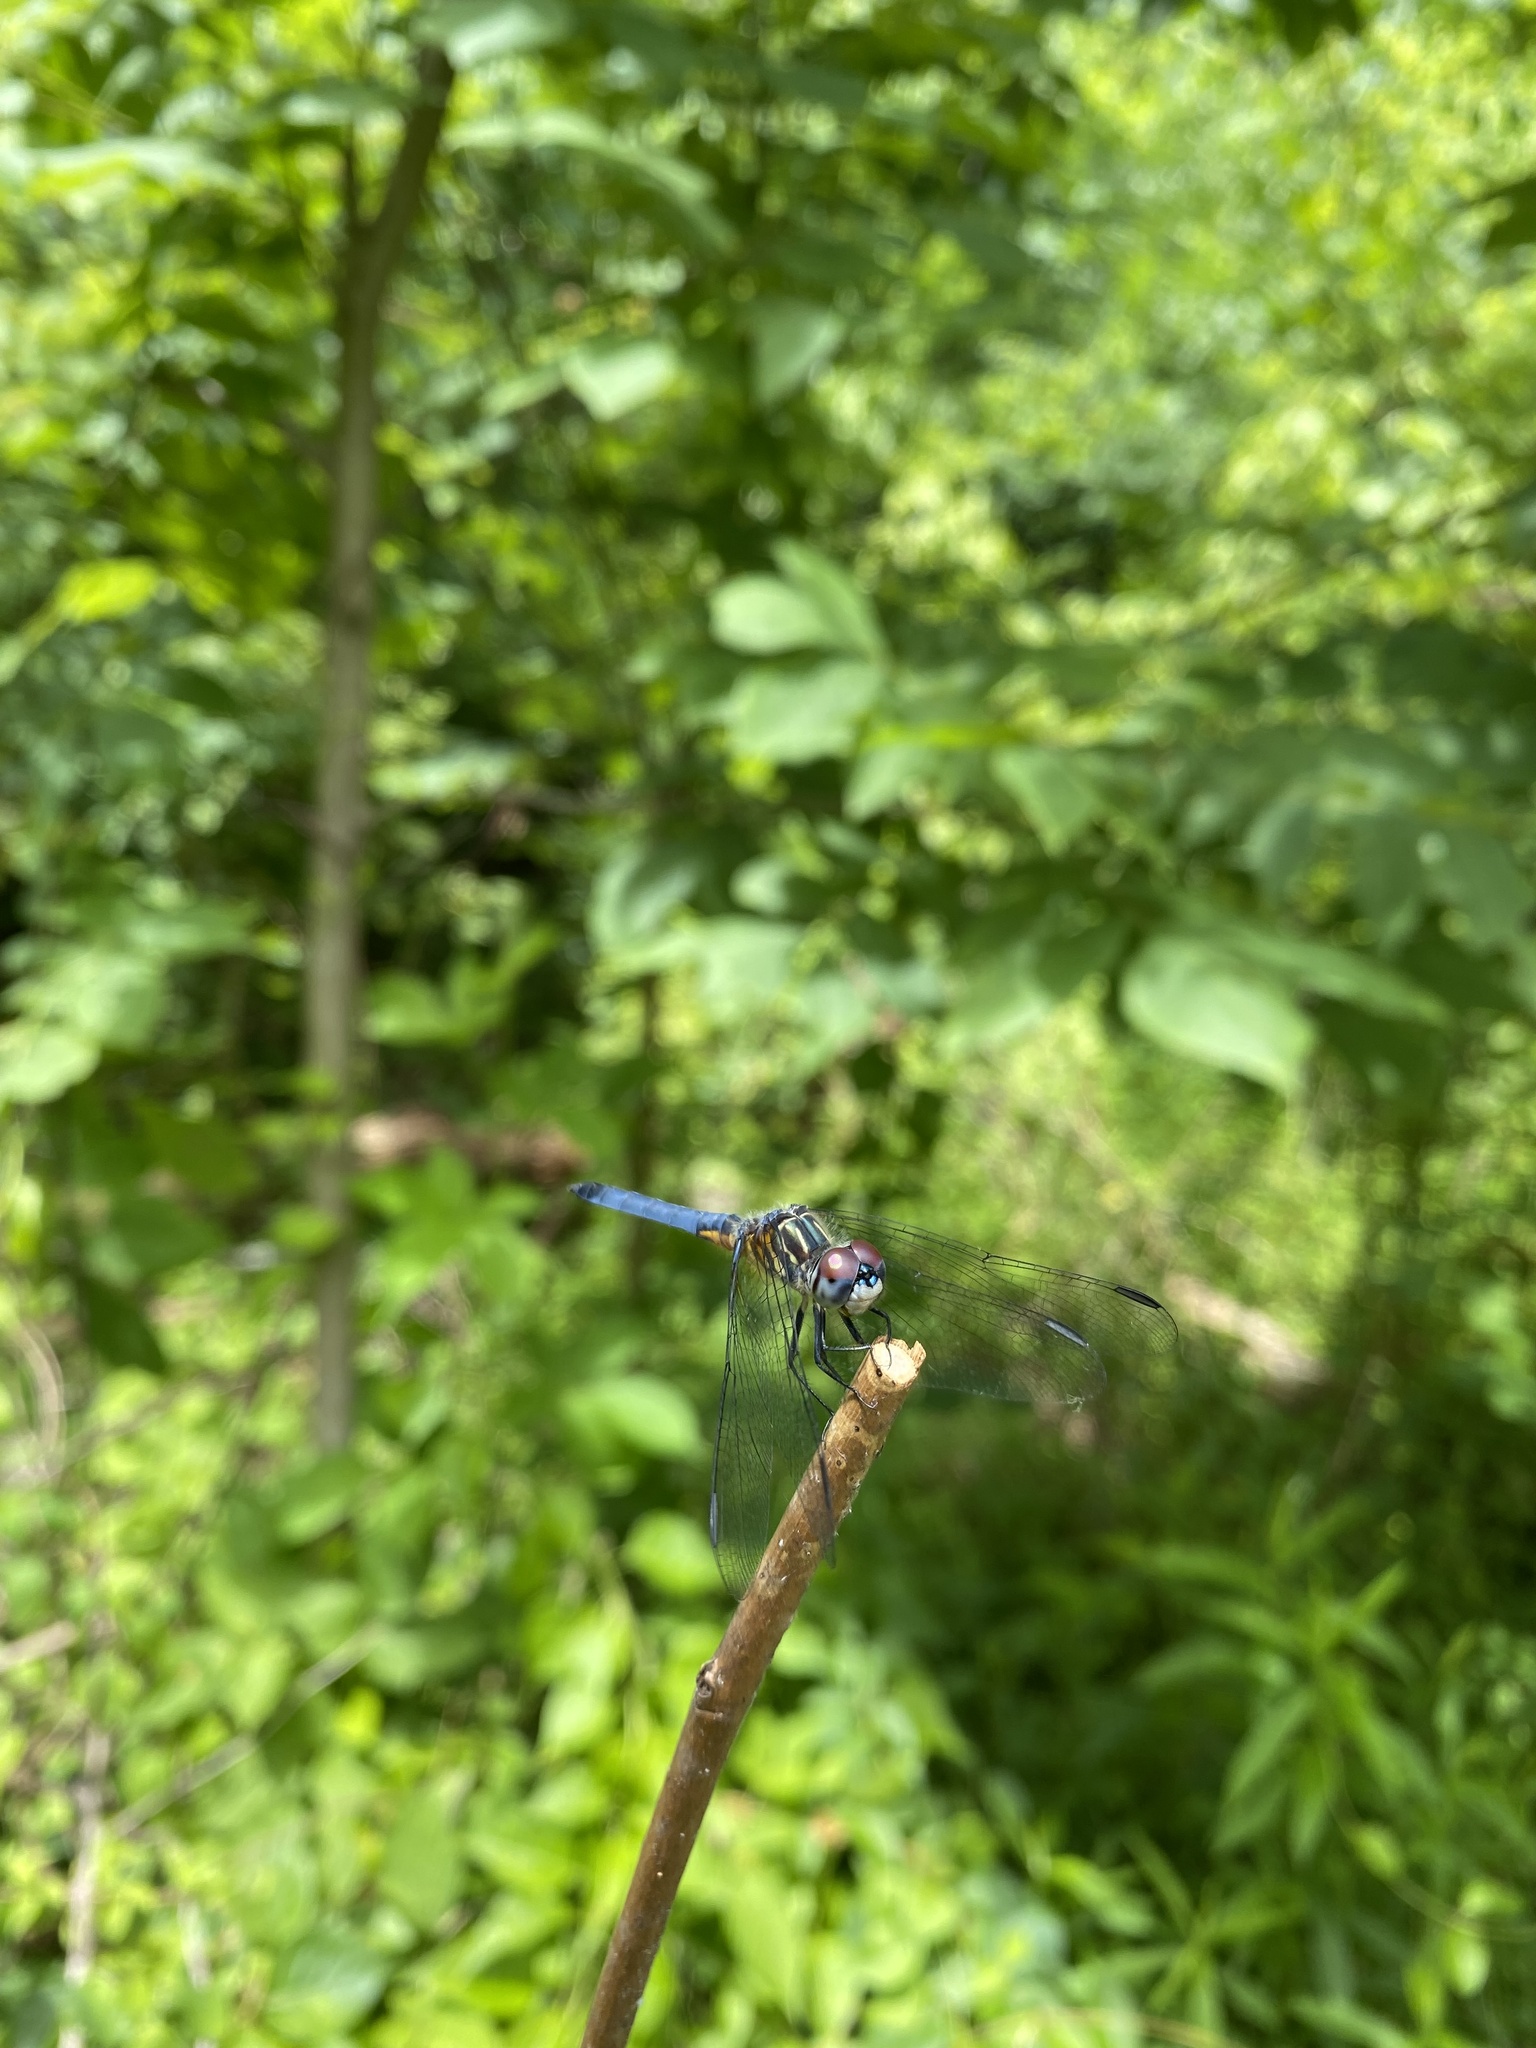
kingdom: Animalia
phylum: Arthropoda
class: Insecta
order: Odonata
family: Libellulidae
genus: Pachydiplax
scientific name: Pachydiplax longipennis
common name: Blue dasher
